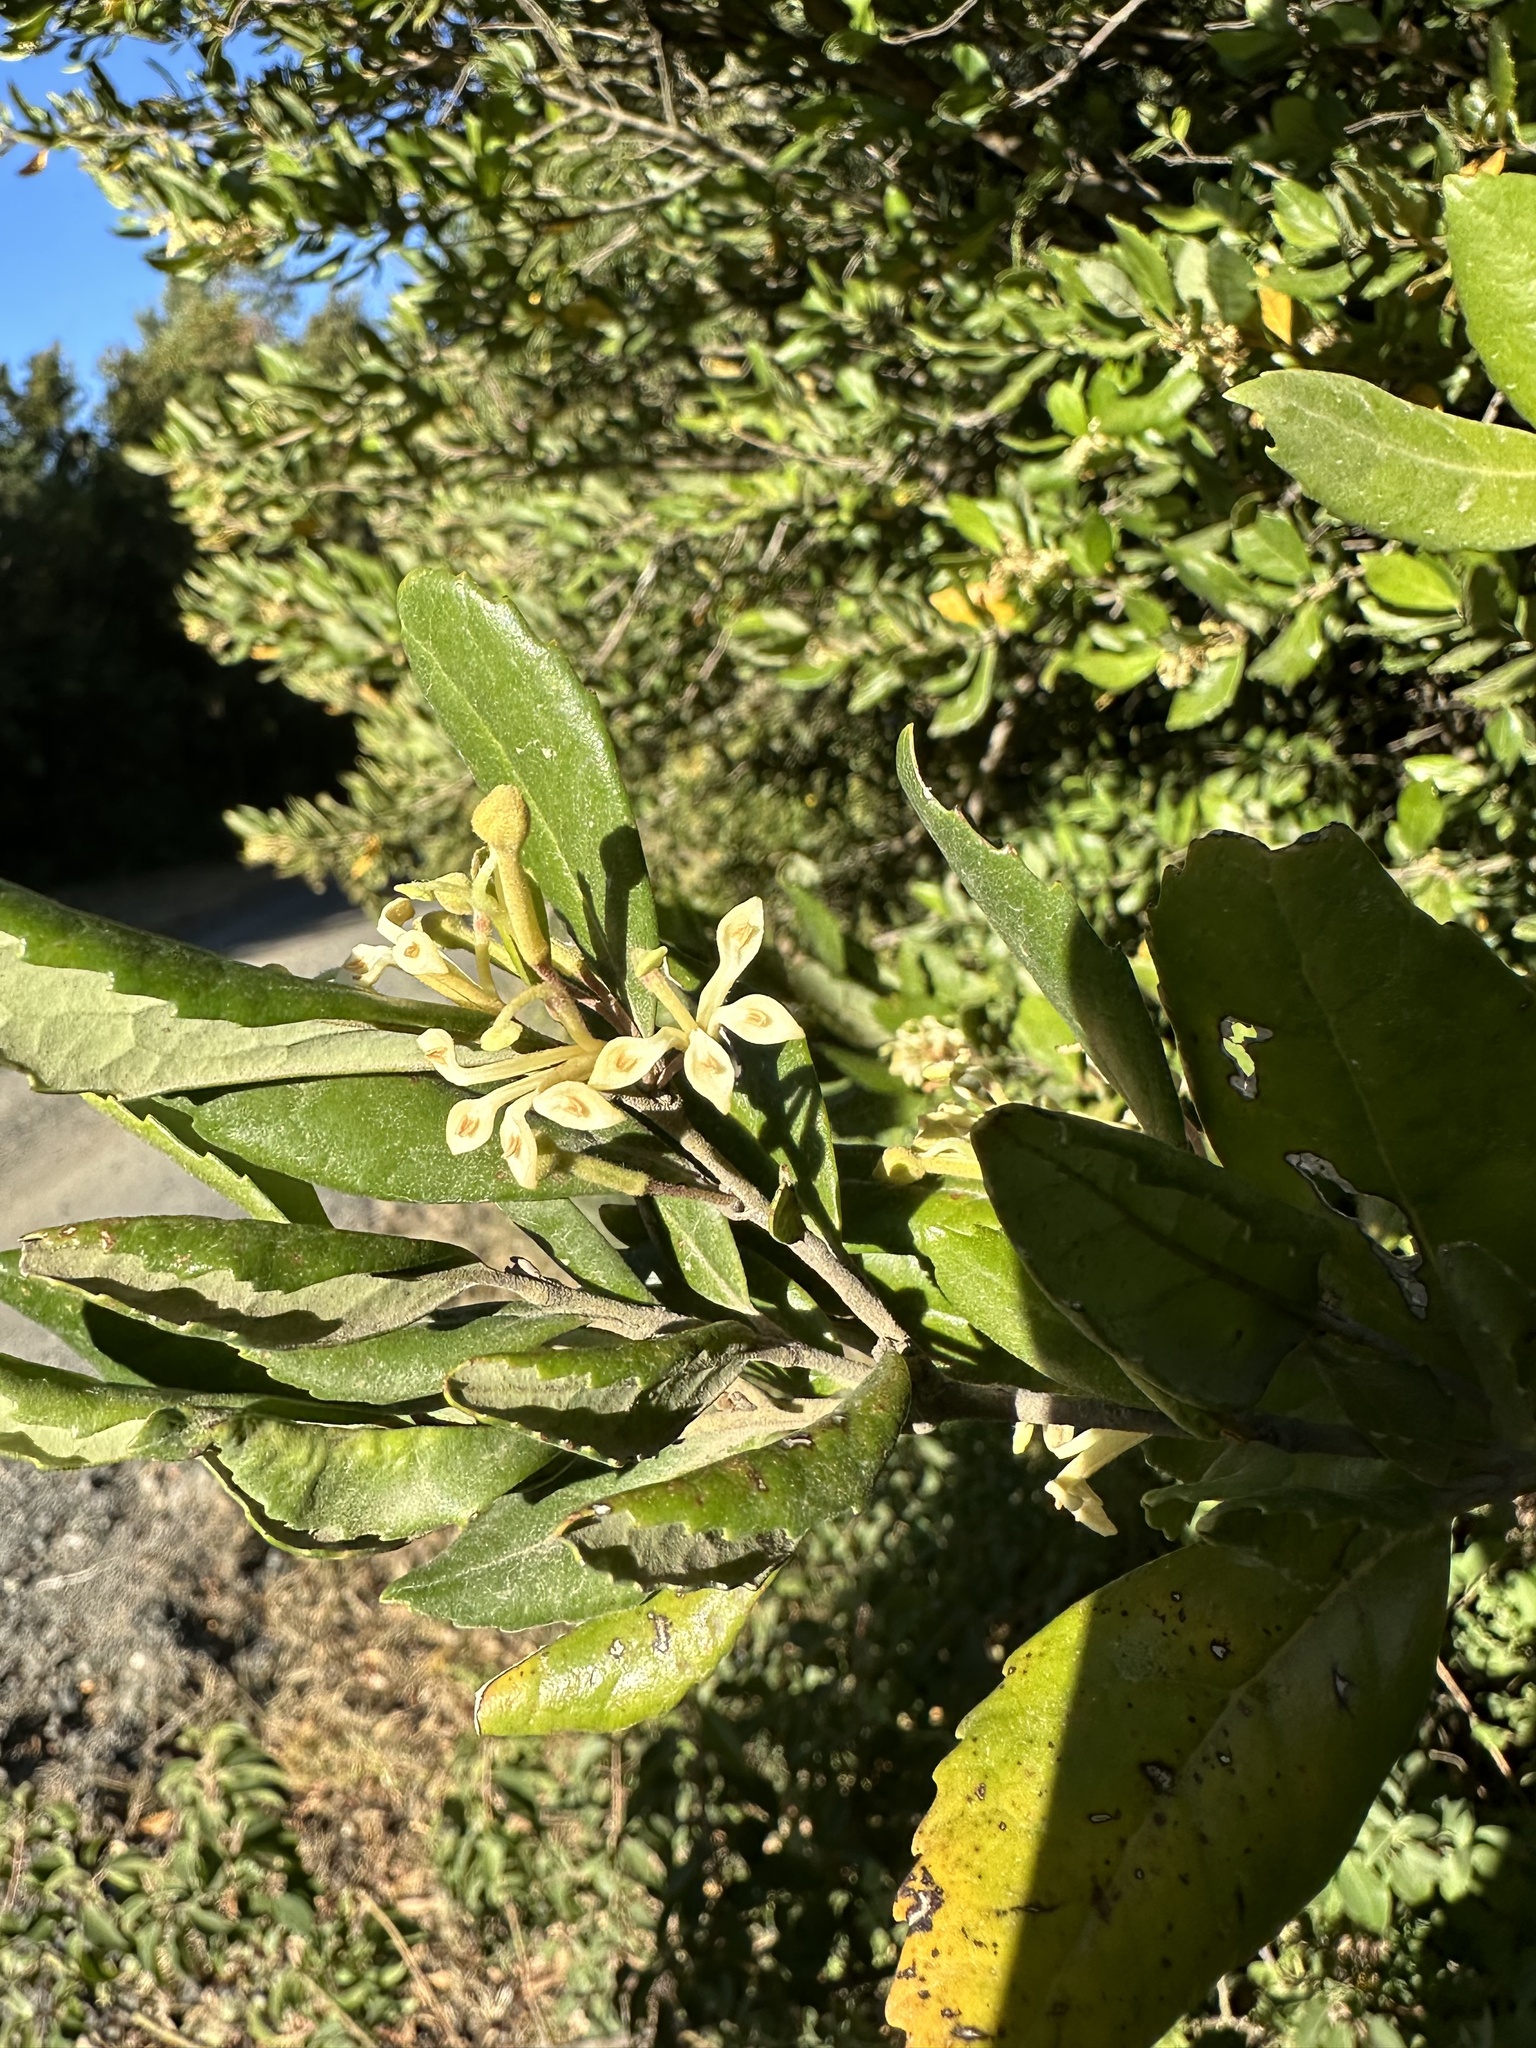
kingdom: Plantae
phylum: Tracheophyta
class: Magnoliopsida
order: Proteales
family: Proteaceae
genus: Lomatia
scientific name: Lomatia dentata
